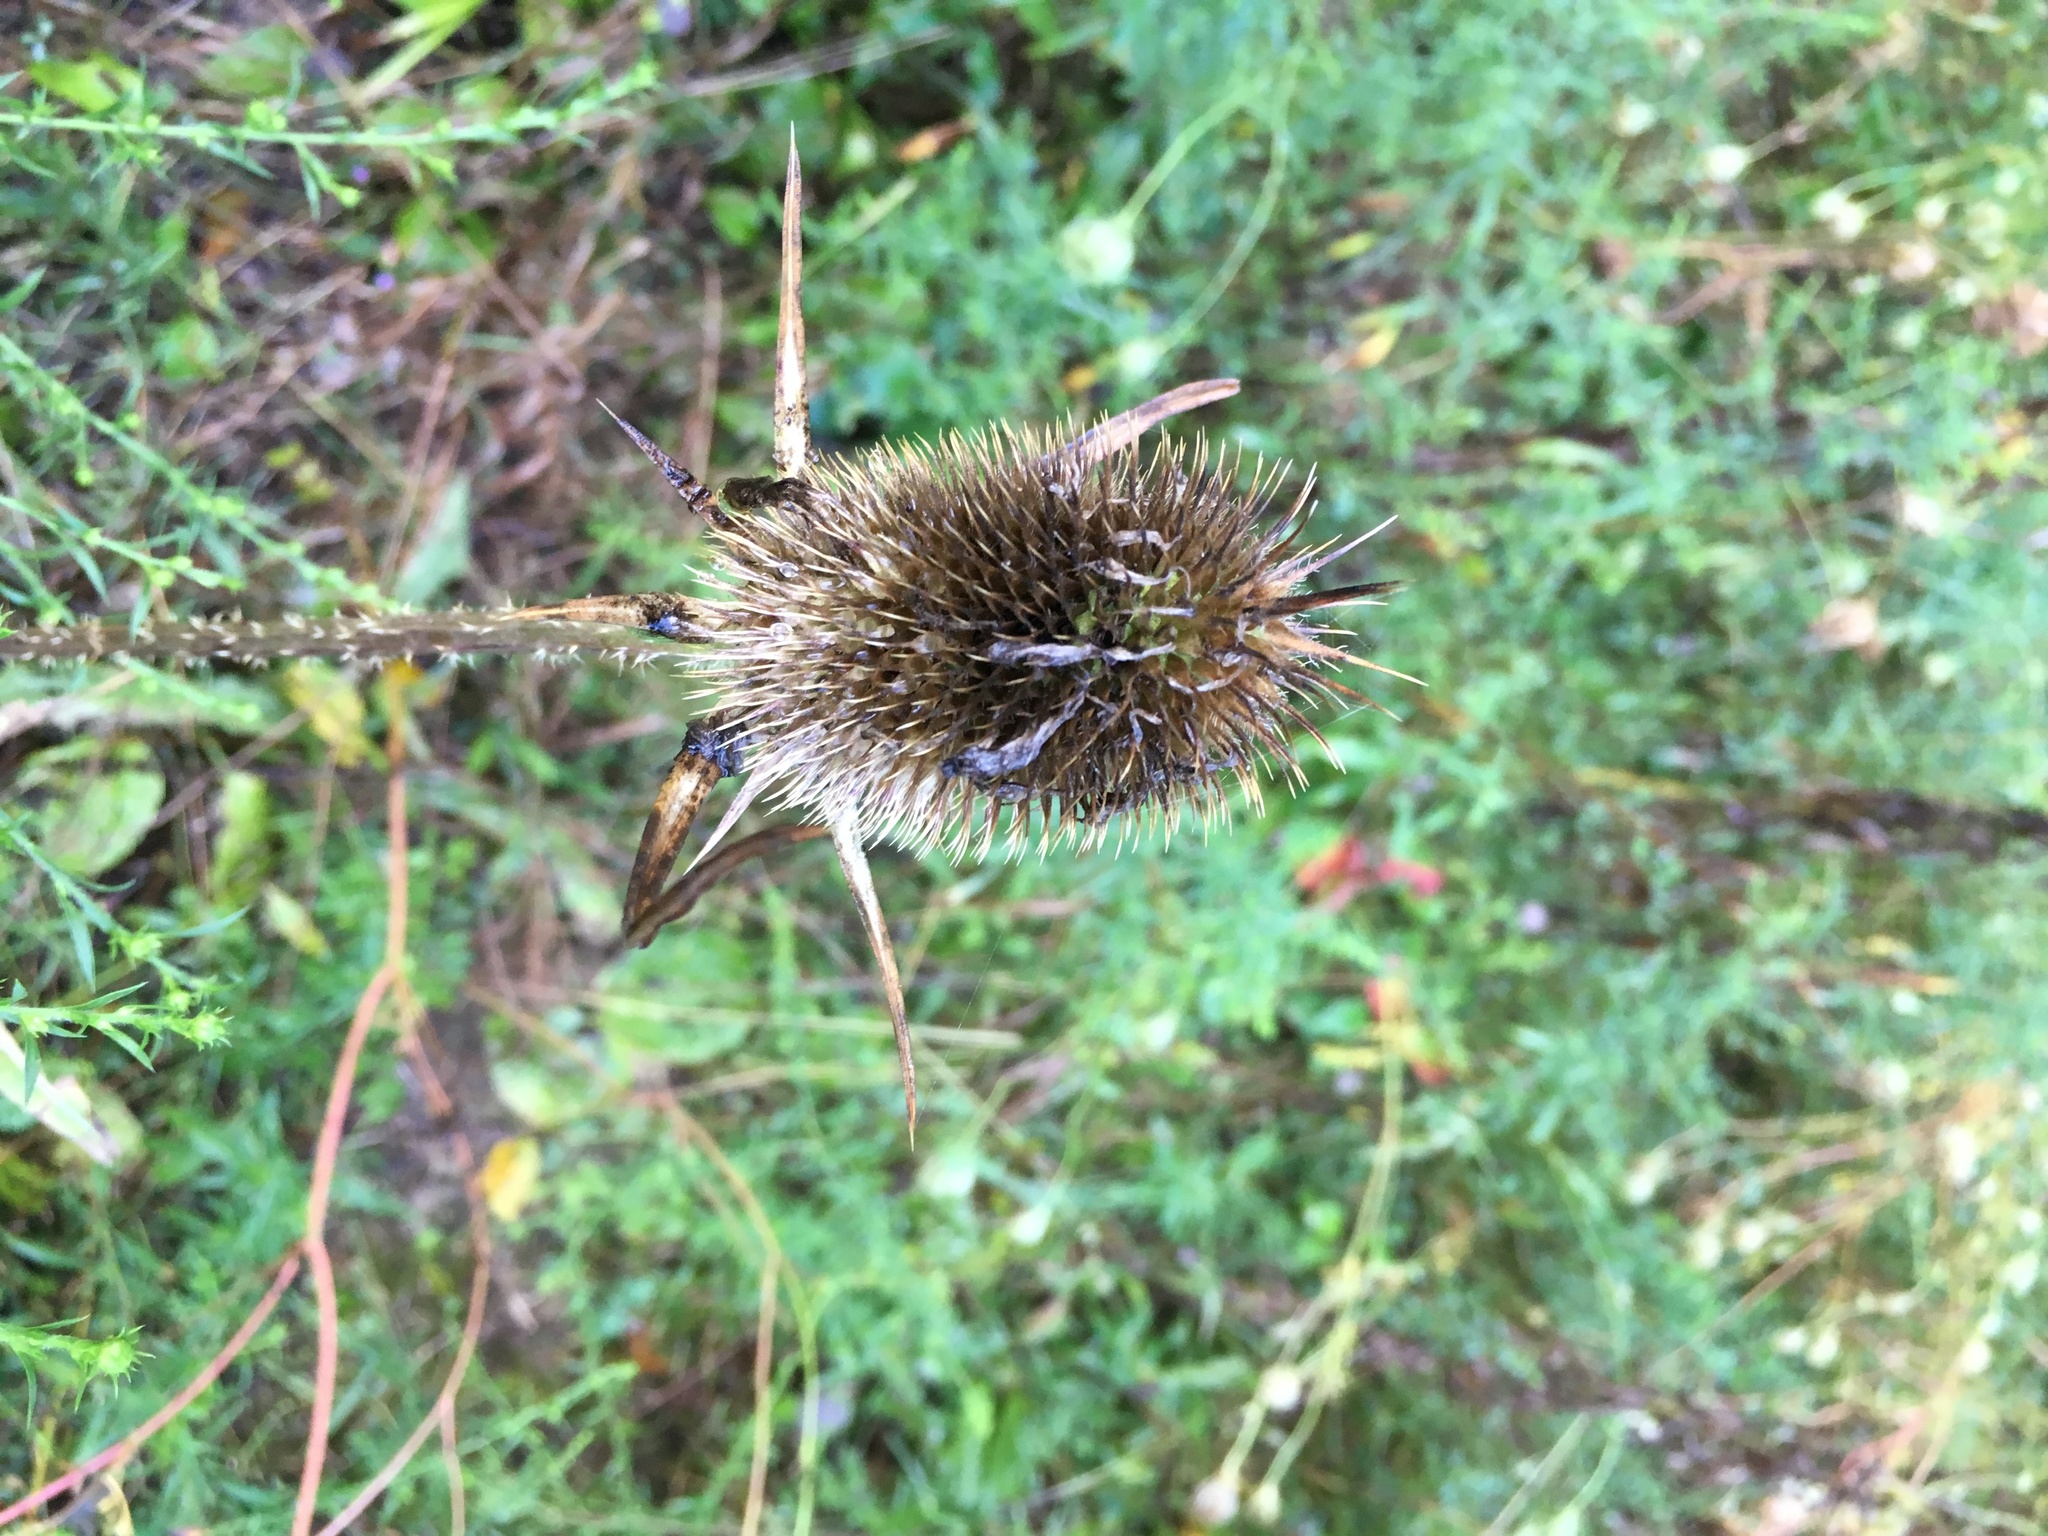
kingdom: Plantae
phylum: Tracheophyta
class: Magnoliopsida
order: Dipsacales
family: Caprifoliaceae
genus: Dipsacus
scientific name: Dipsacus laciniatus
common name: Cut-leaved teasel
